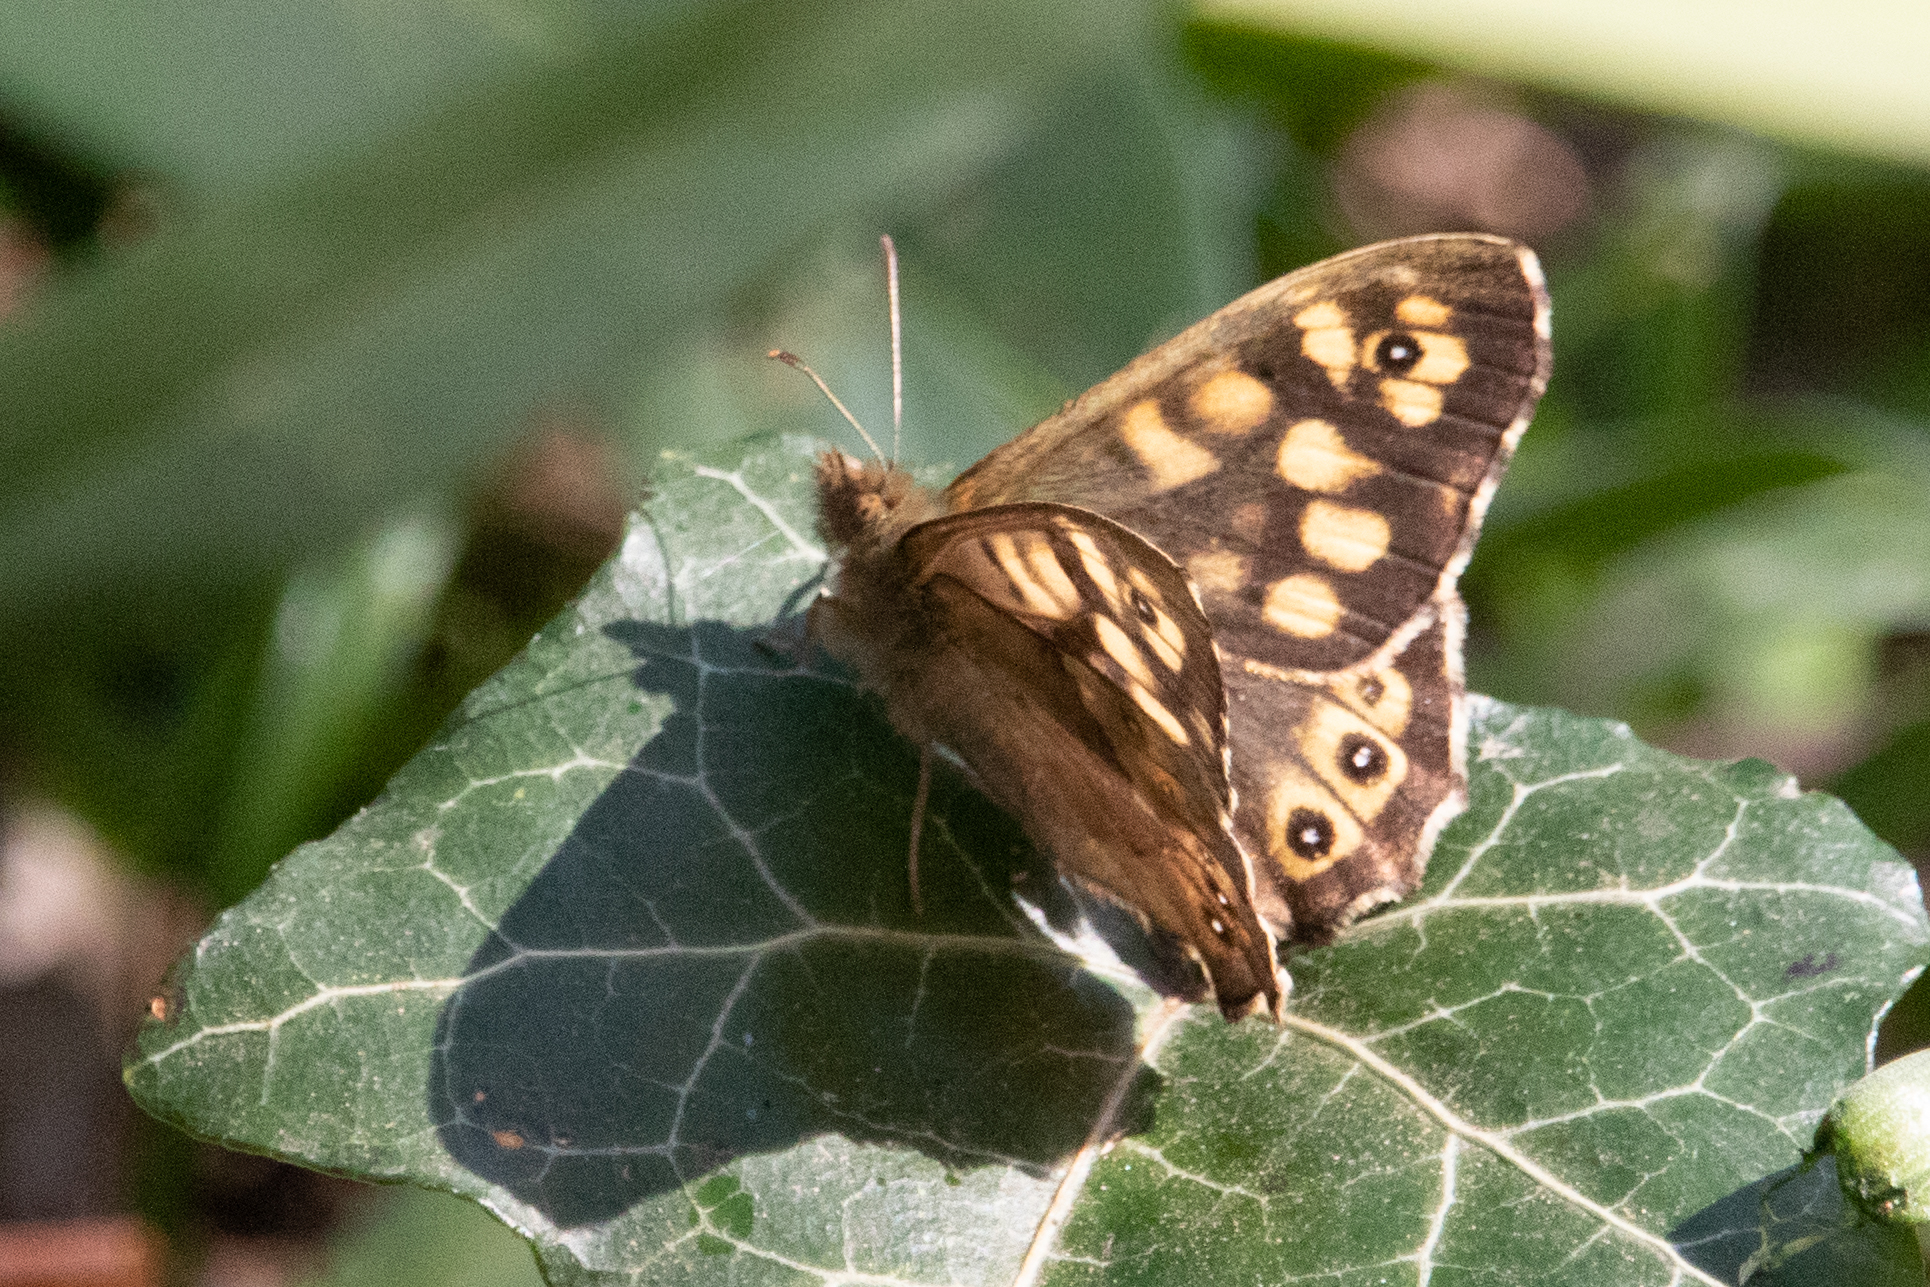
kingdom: Animalia
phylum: Arthropoda
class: Insecta
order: Lepidoptera
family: Nymphalidae
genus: Pararge
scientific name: Pararge aegeria
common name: Speckled wood
